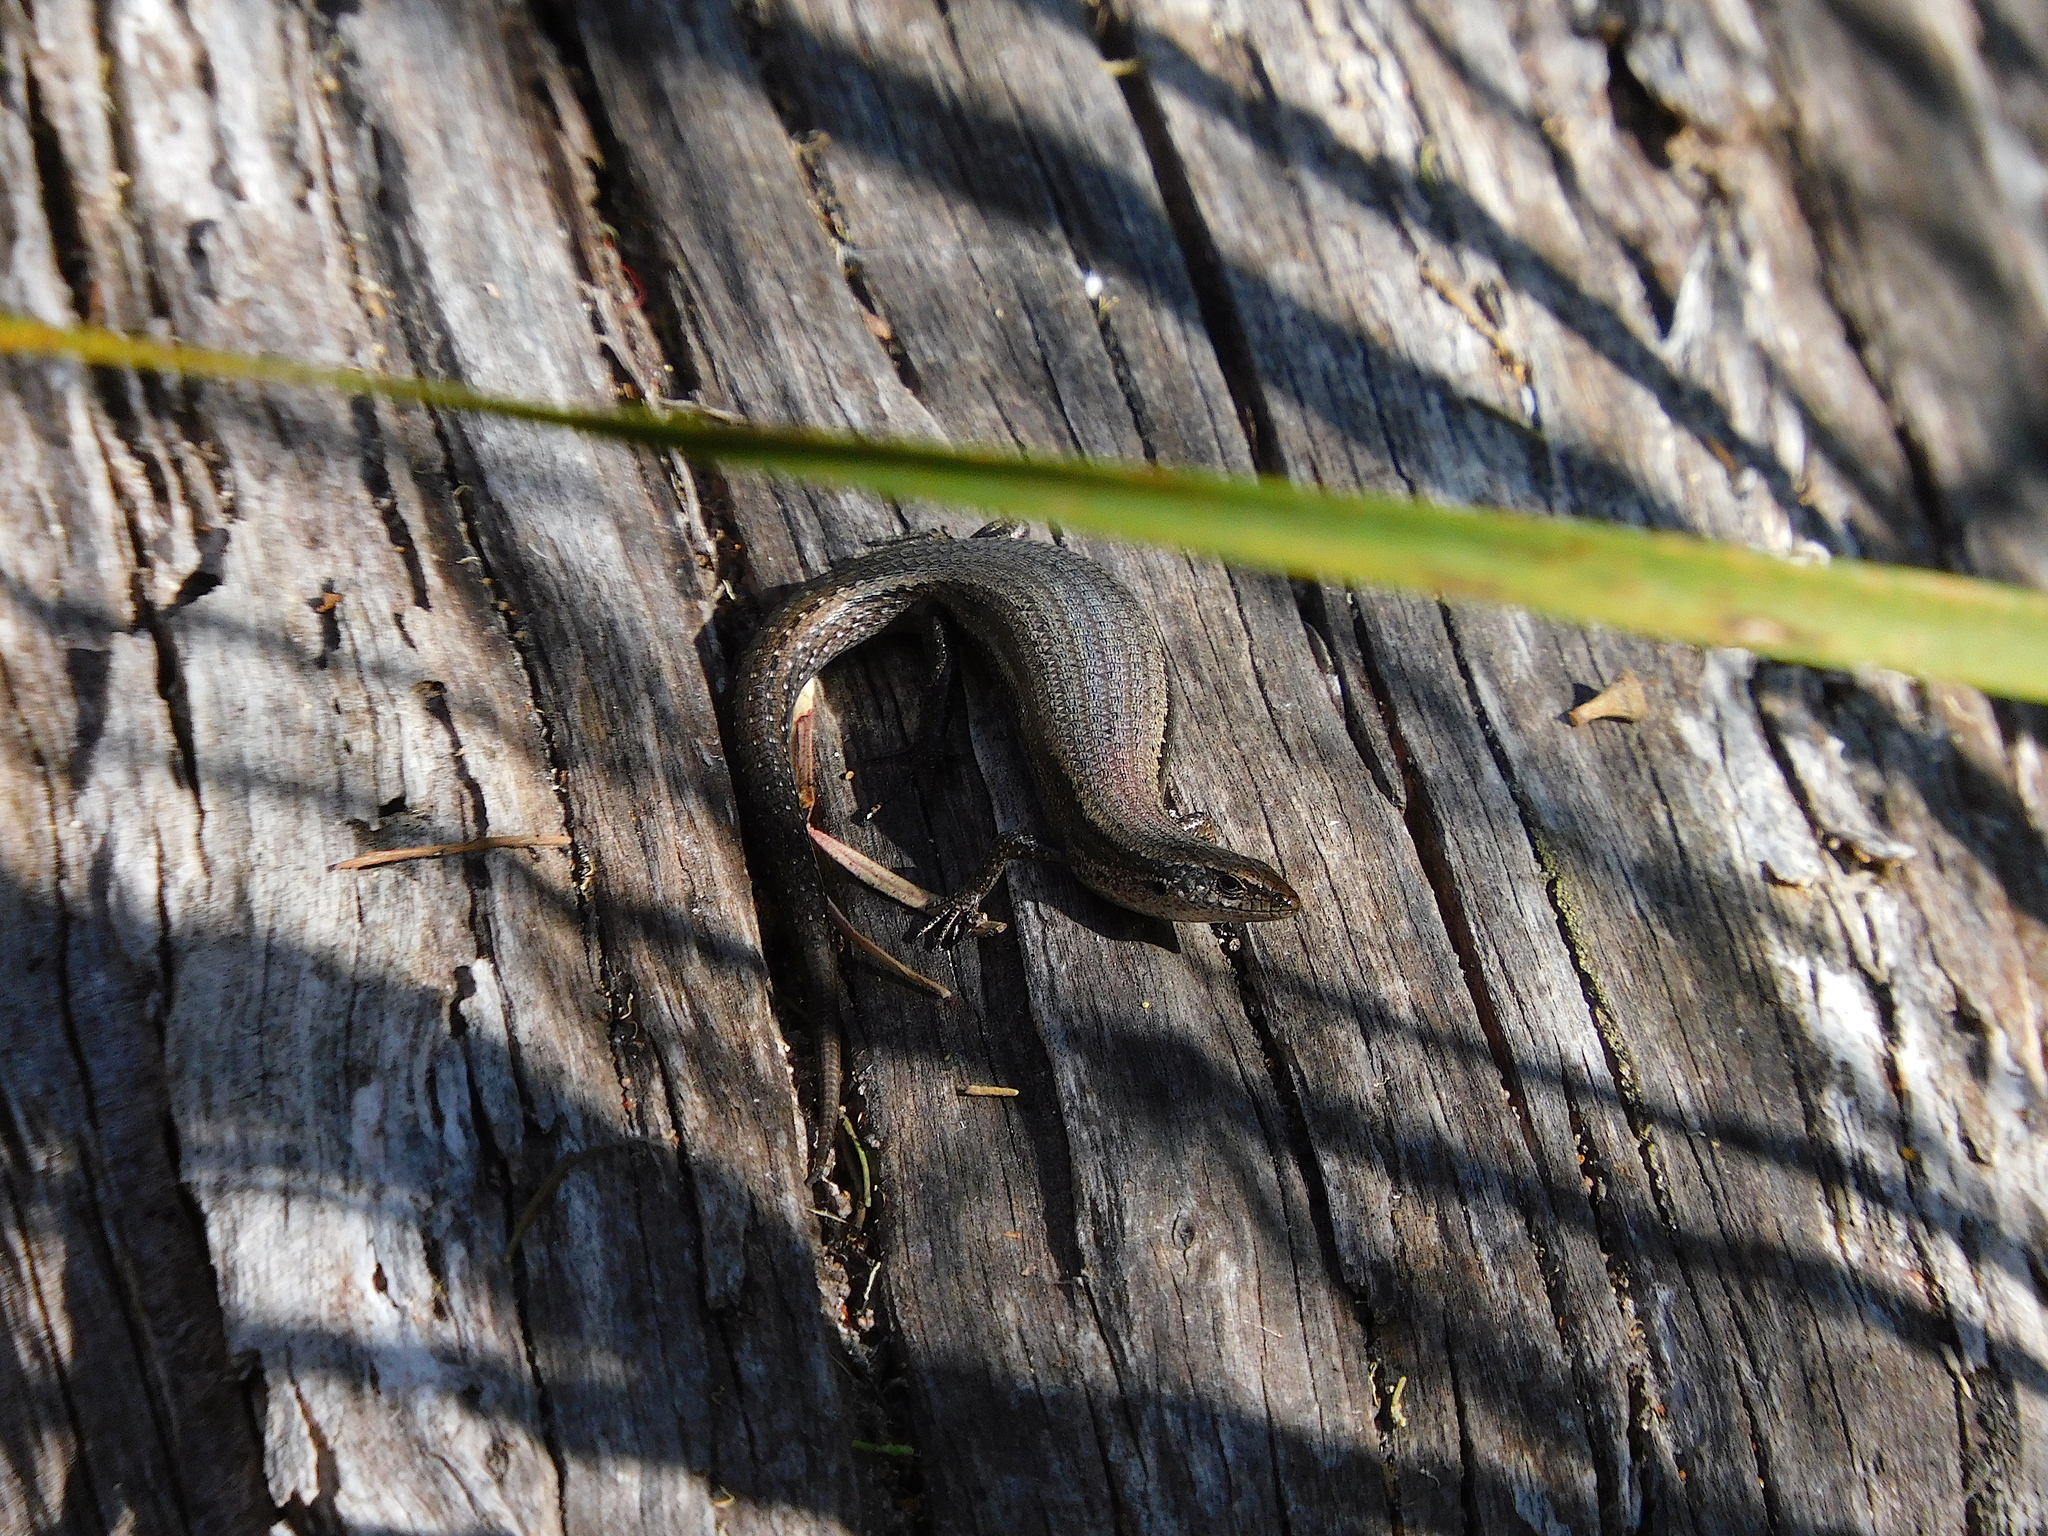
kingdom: Animalia
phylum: Chordata
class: Squamata
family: Scincidae
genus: Carinascincus
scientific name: Carinascincus metallicus
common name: Metallic cool-skink
